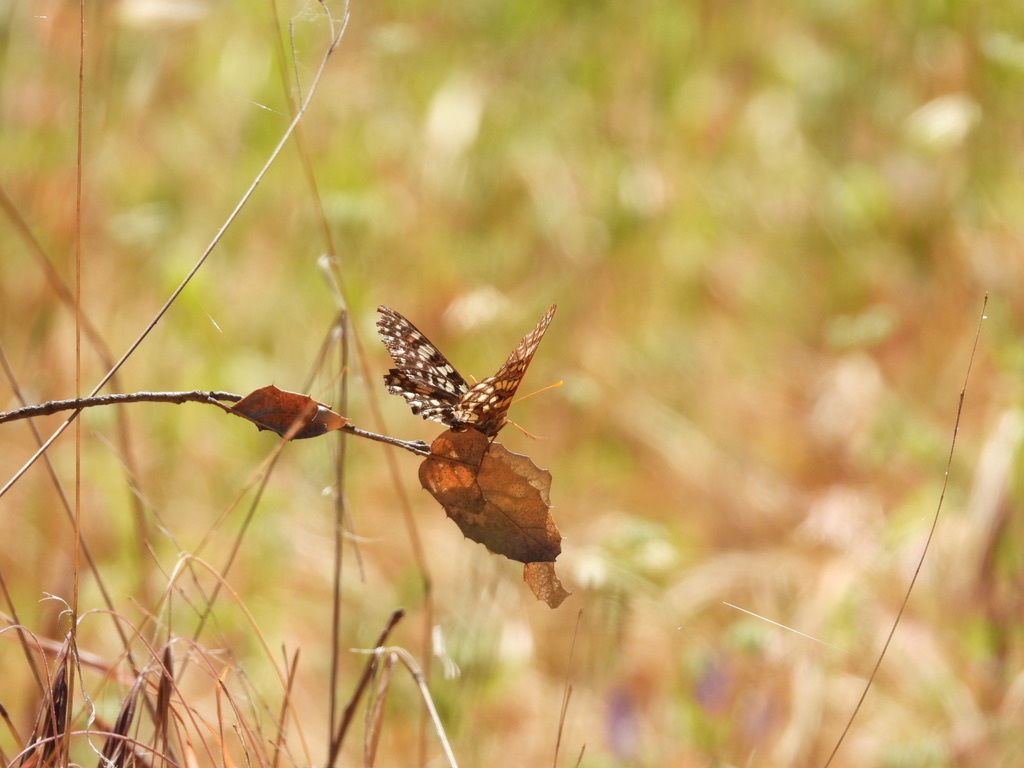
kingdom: Animalia
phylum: Arthropoda
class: Insecta
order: Lepidoptera
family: Nymphalidae
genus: Occidryas
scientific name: Occidryas chalcedona
